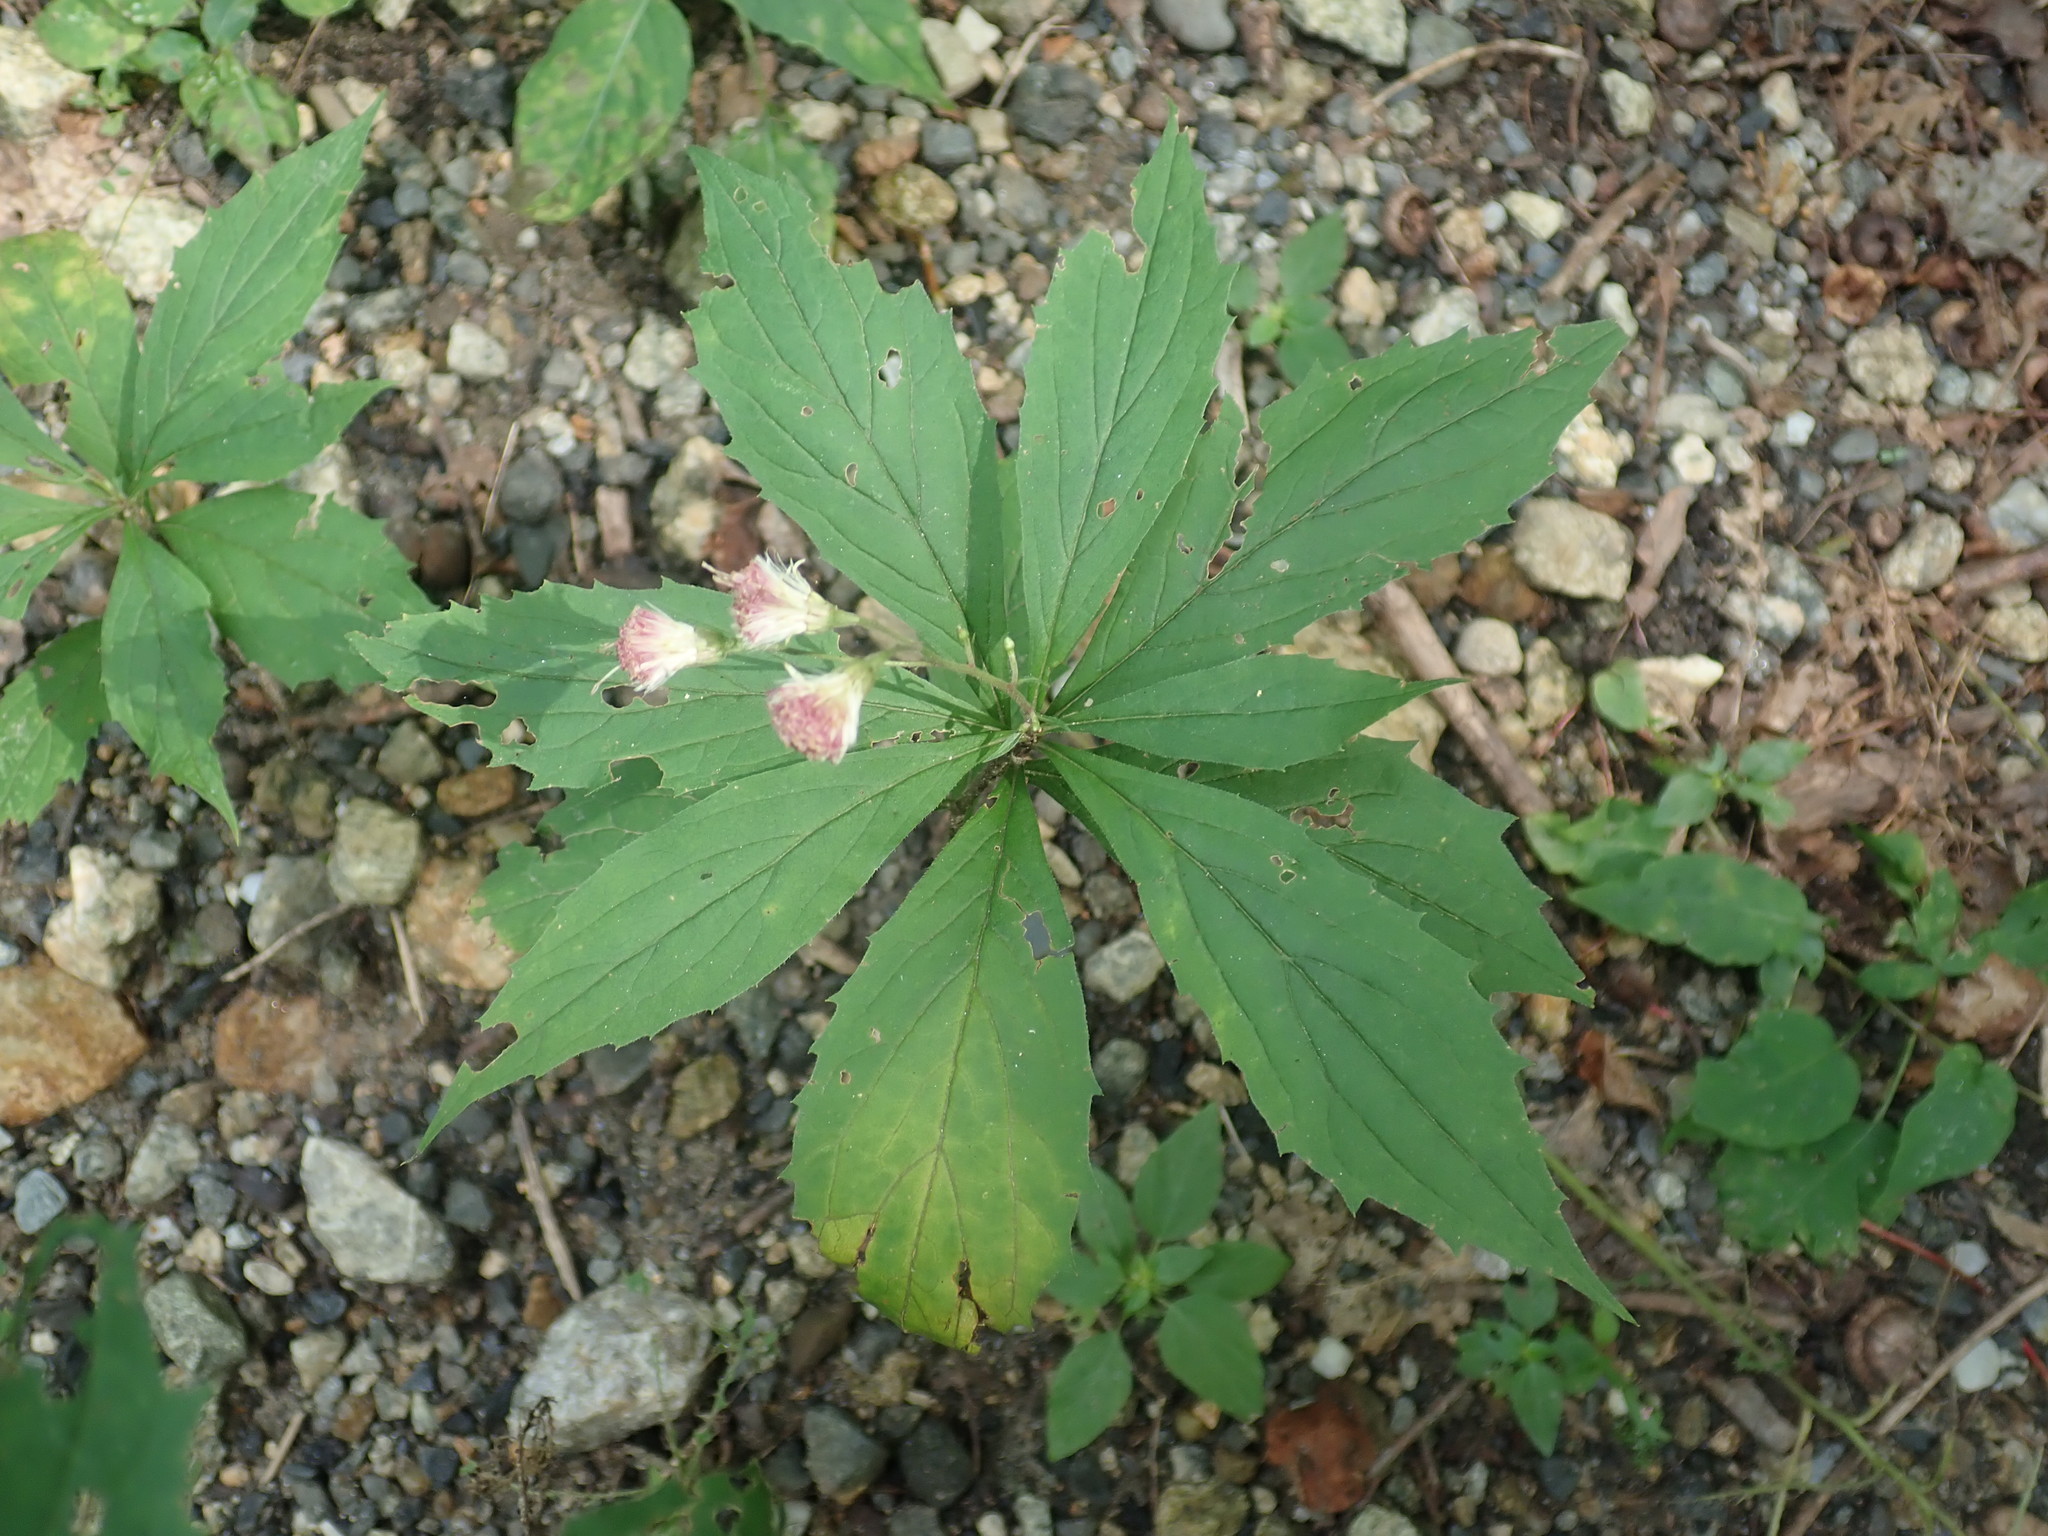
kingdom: Plantae
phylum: Tracheophyta
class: Magnoliopsida
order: Asterales
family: Asteraceae
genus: Oclemena
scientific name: Oclemena acuminata
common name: Mountain aster
